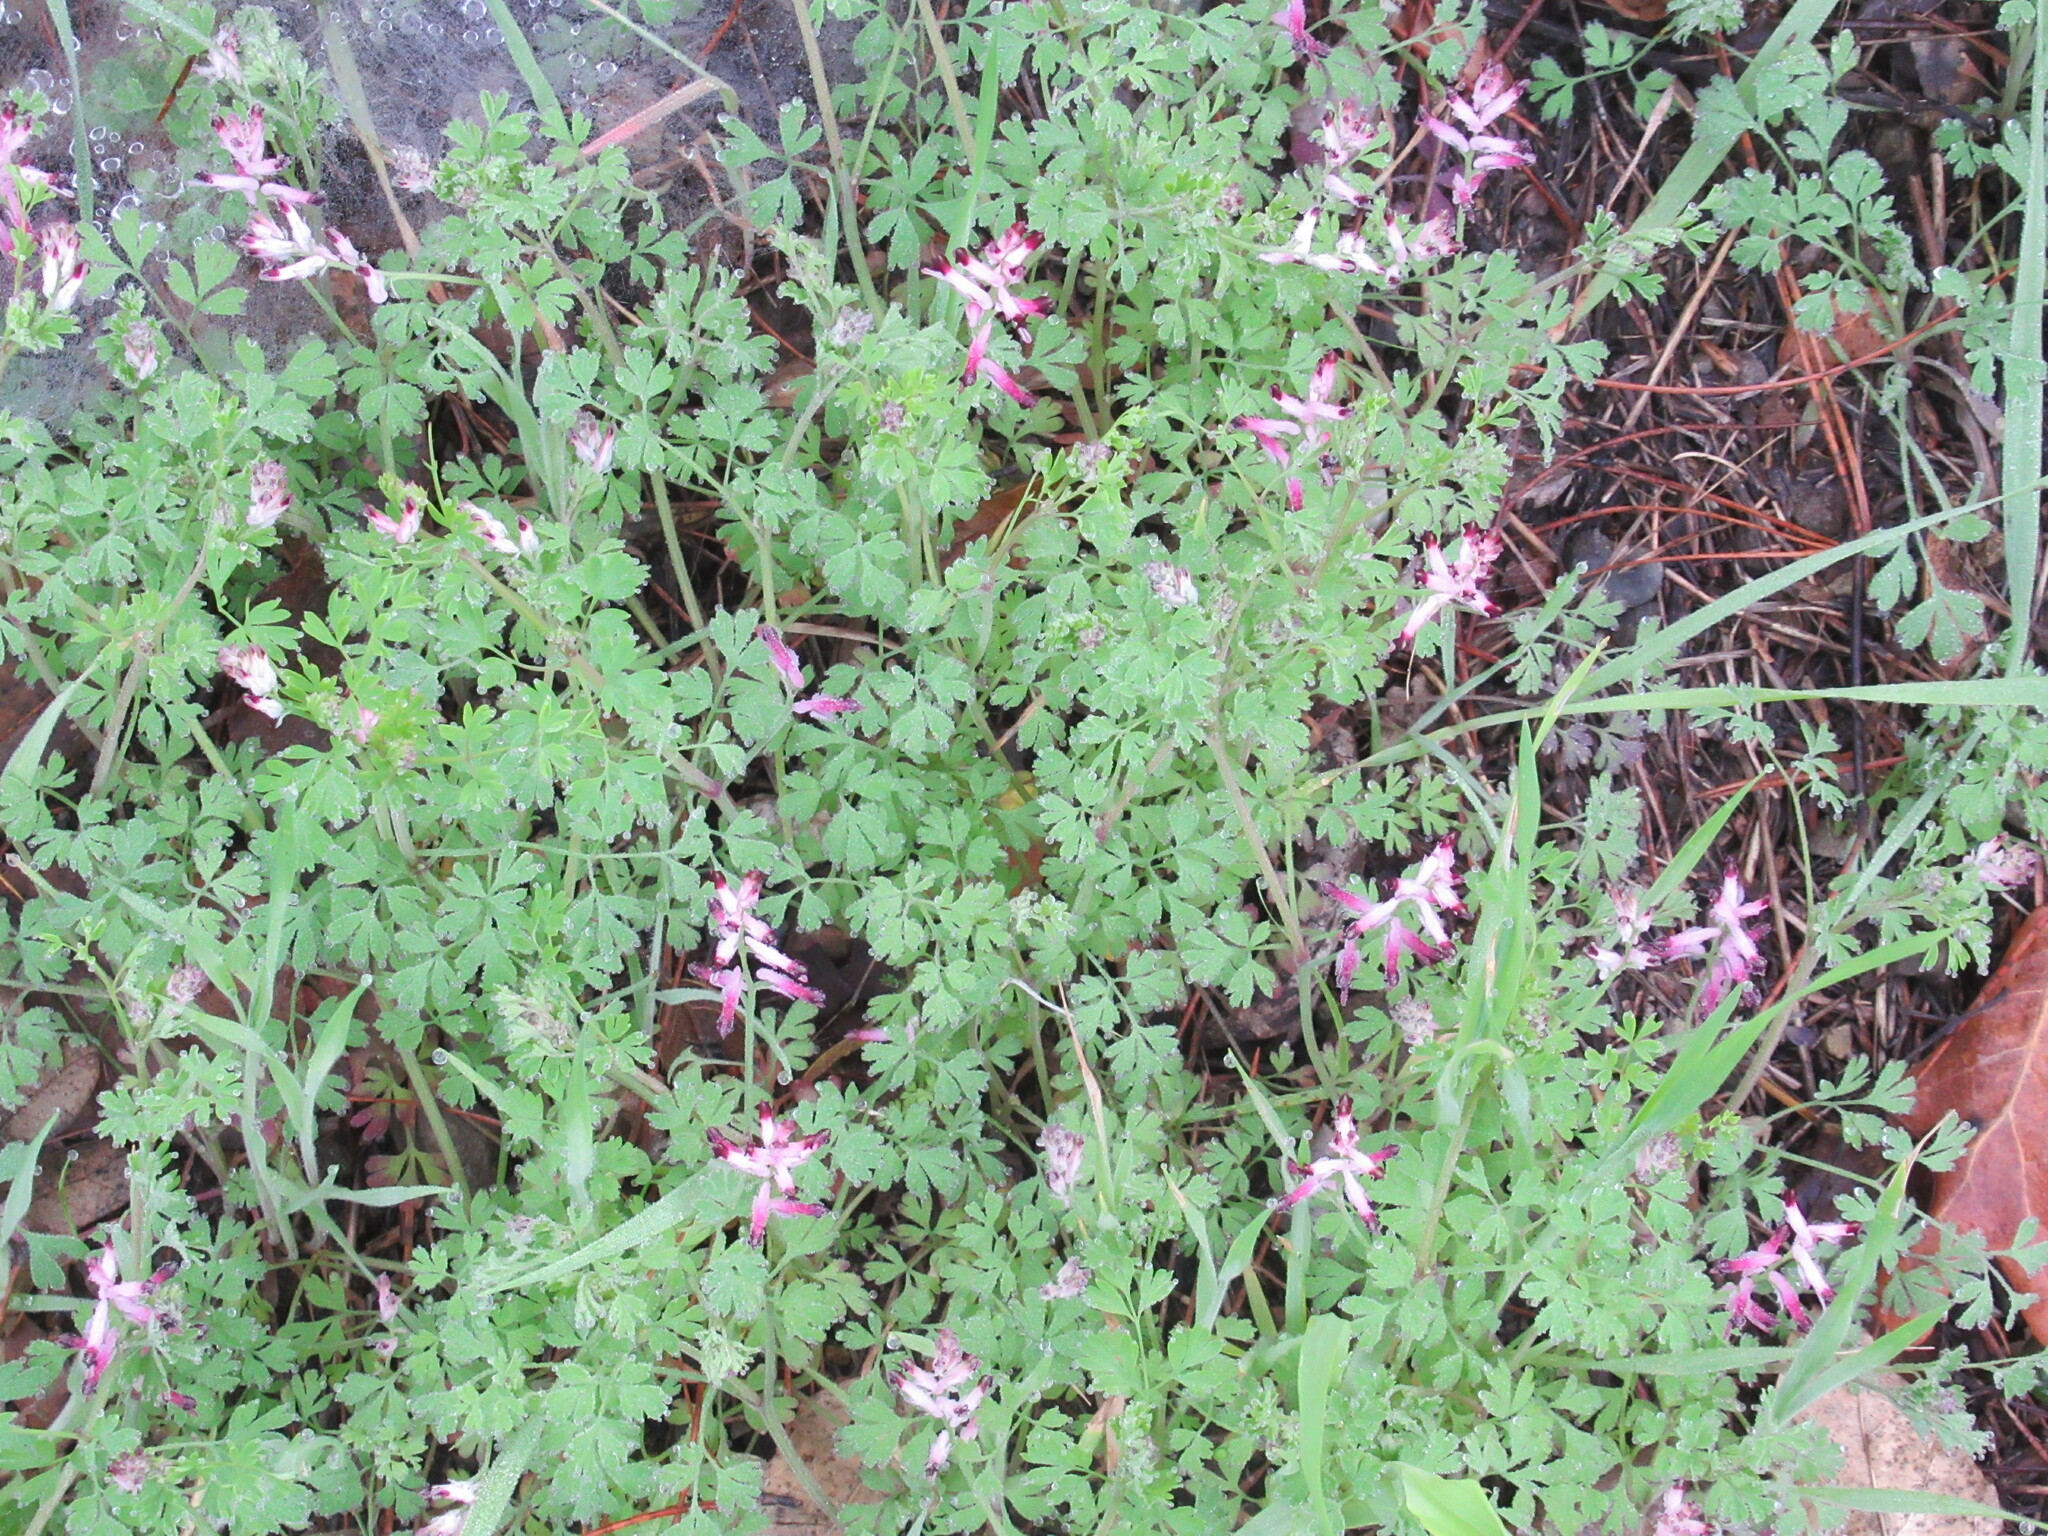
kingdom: Plantae
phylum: Tracheophyta
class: Magnoliopsida
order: Ranunculales
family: Papaveraceae
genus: Fumaria
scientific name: Fumaria muralis
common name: Common ramping-fumitory
